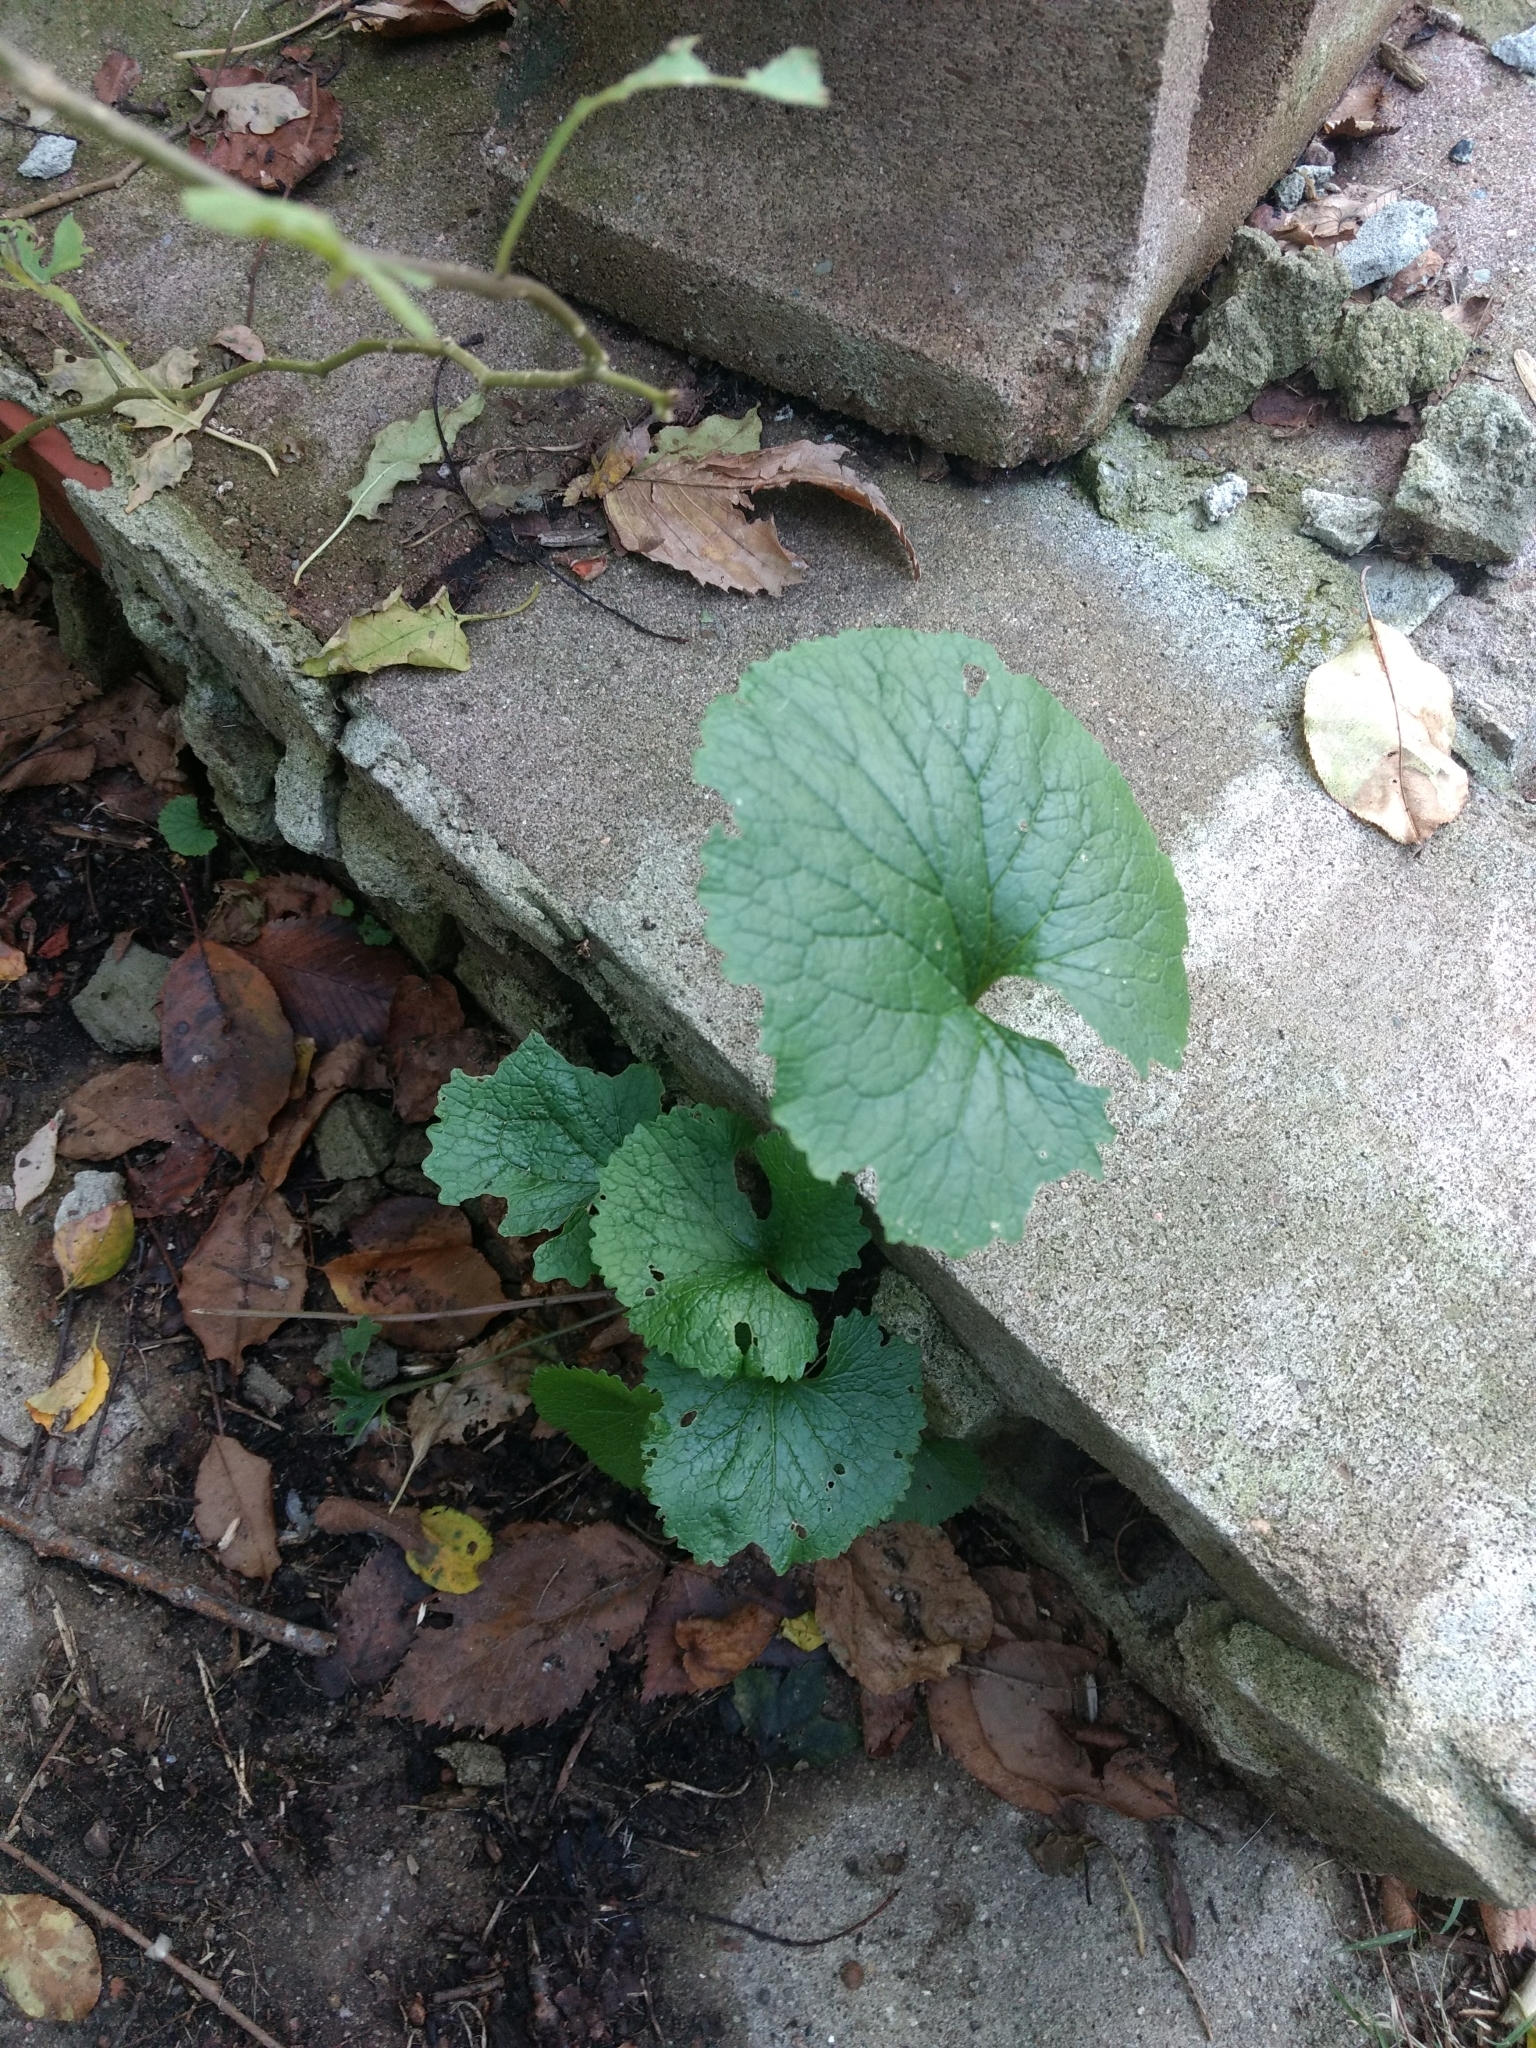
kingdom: Plantae
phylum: Tracheophyta
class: Magnoliopsida
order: Brassicales
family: Brassicaceae
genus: Alliaria
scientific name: Alliaria petiolata
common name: Garlic mustard
